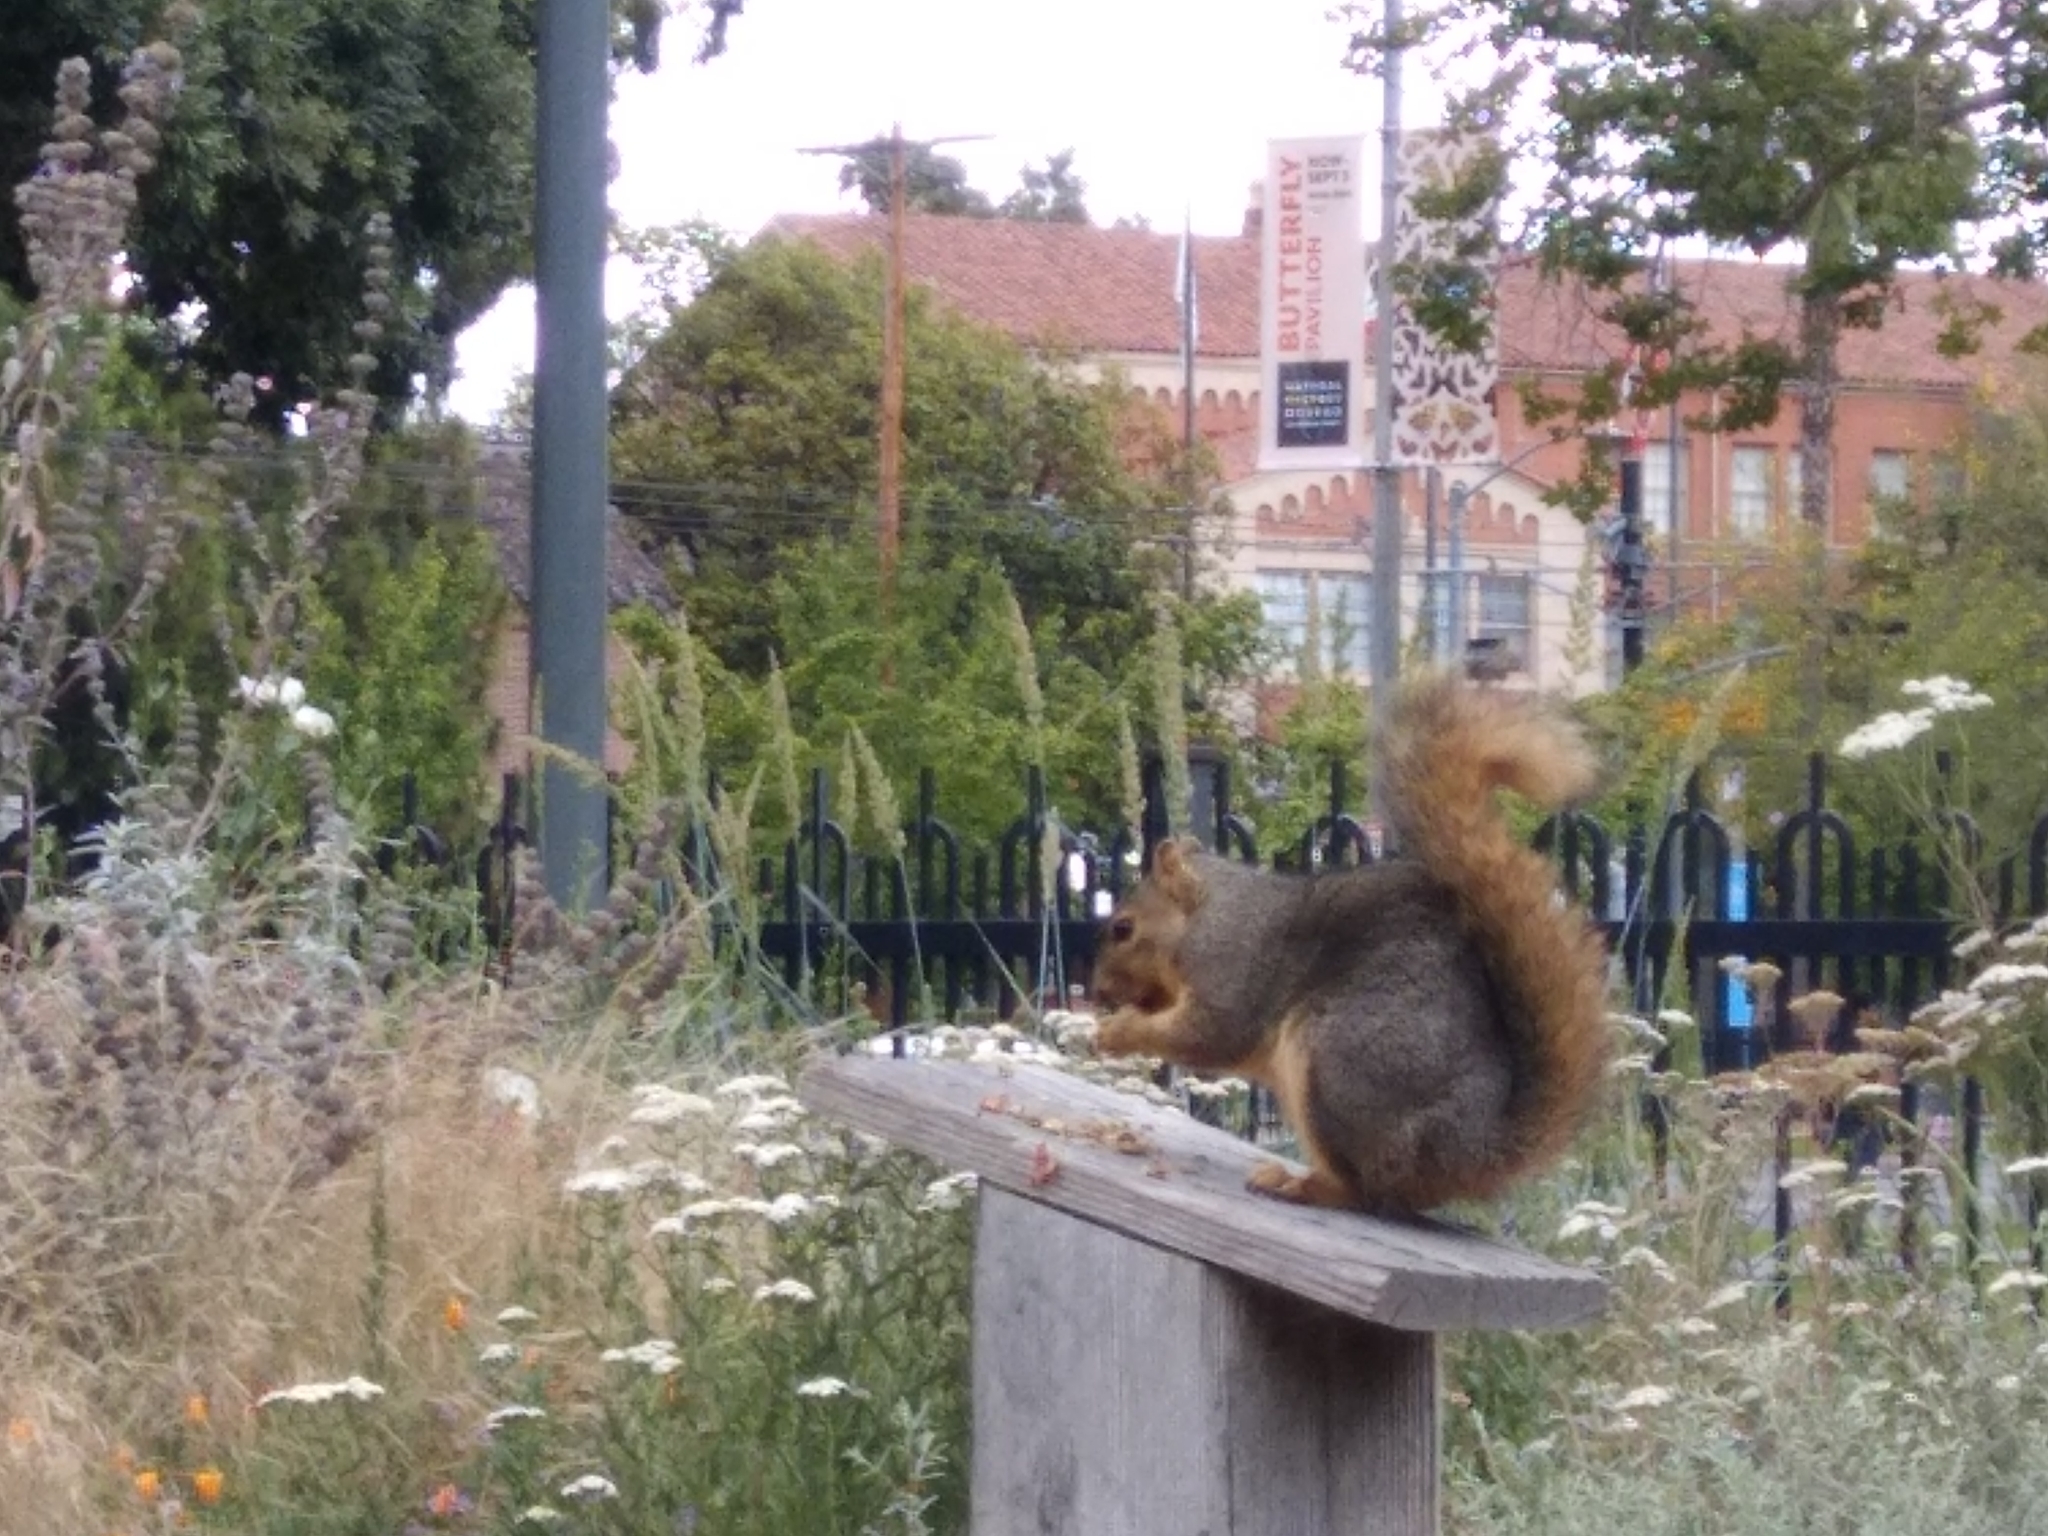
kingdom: Animalia
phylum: Chordata
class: Mammalia
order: Rodentia
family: Sciuridae
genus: Sciurus
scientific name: Sciurus niger
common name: Fox squirrel
